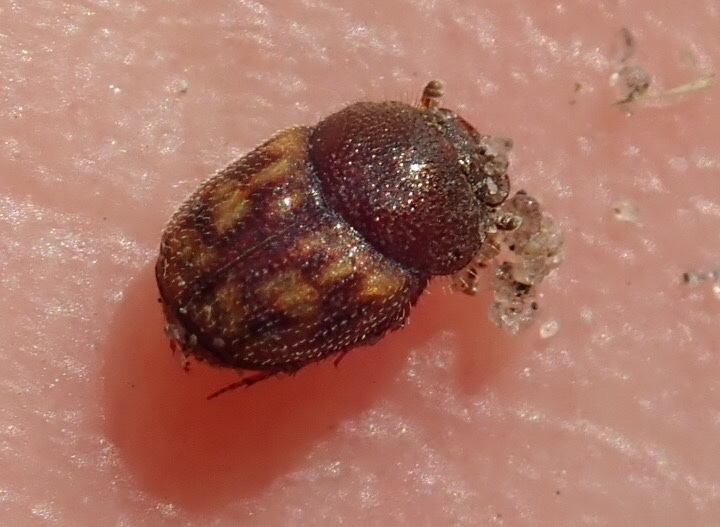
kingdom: Animalia
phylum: Arthropoda
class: Insecta
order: Coleoptera
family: Scarabaeidae
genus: Onthophagus
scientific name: Onthophagus variegatus
